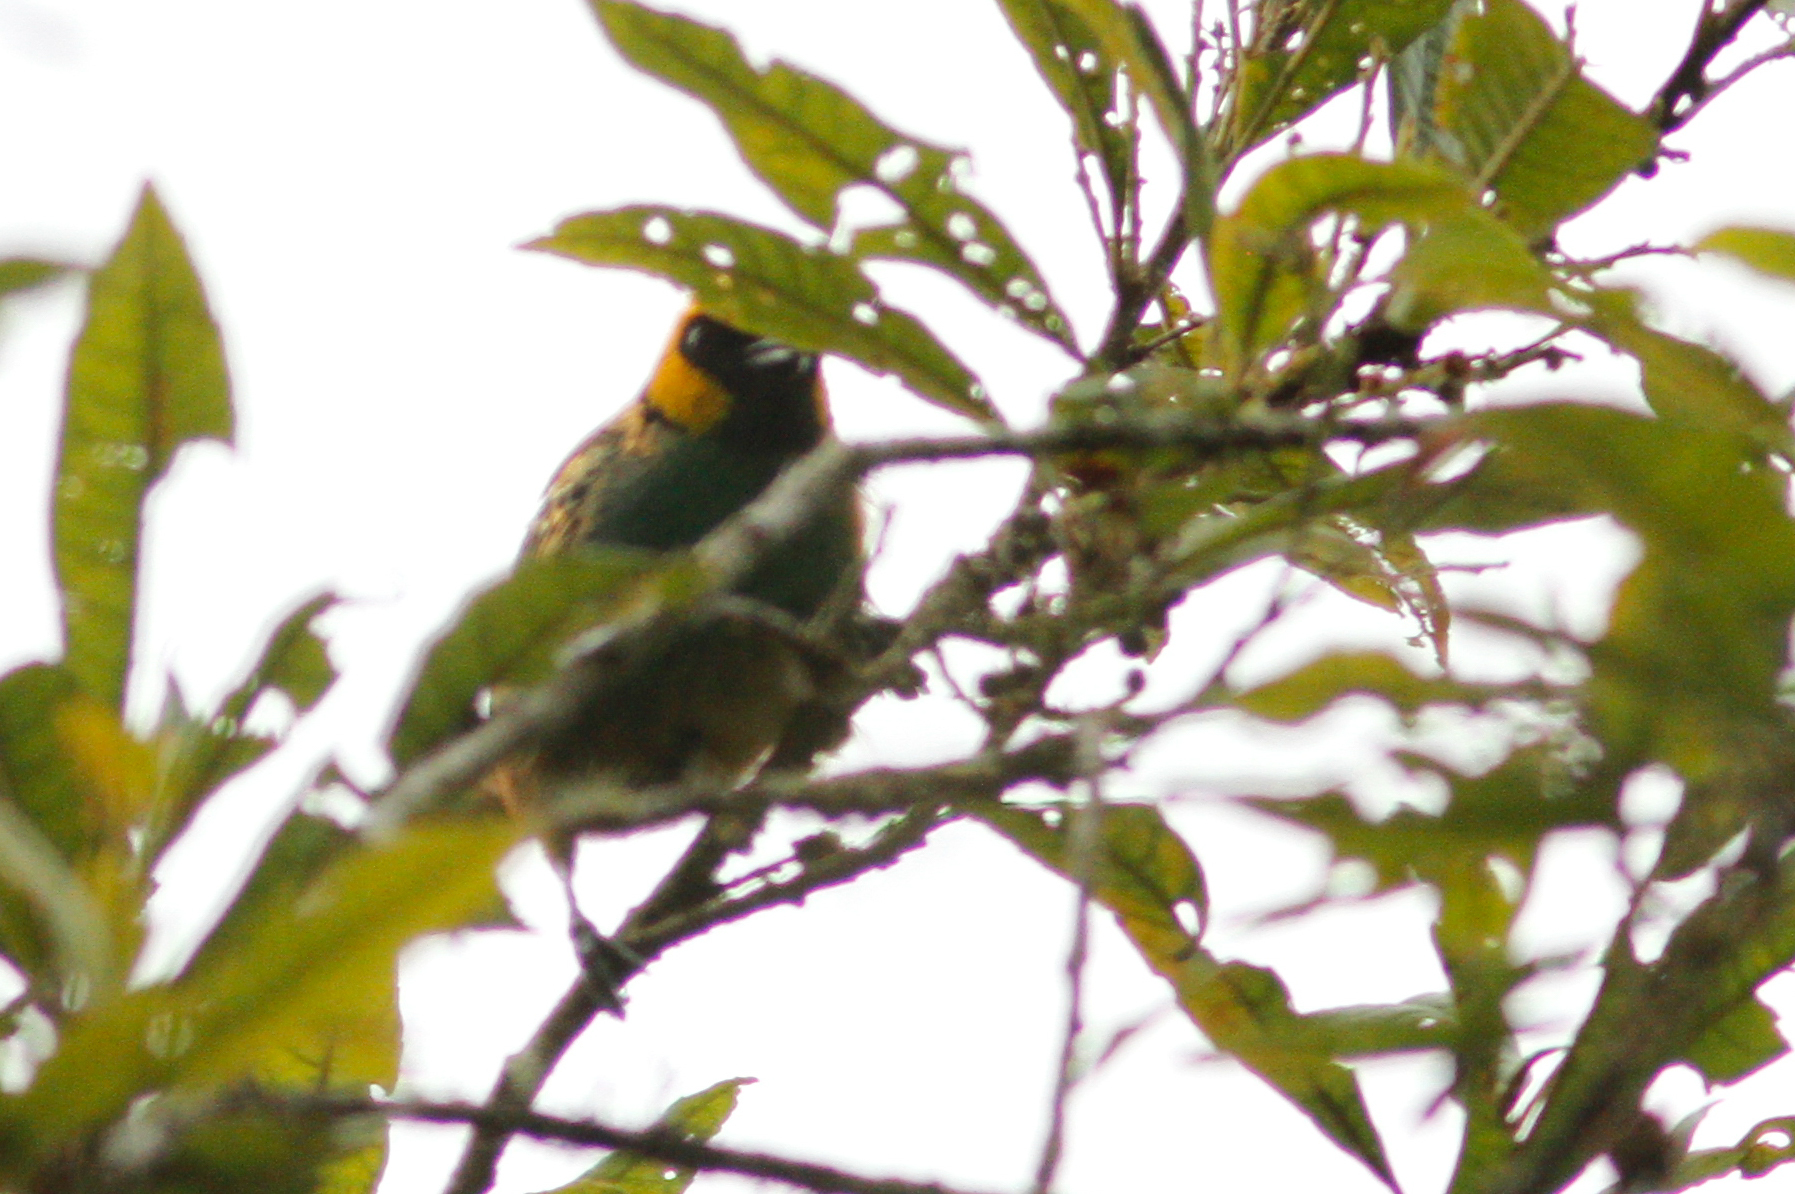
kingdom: Animalia
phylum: Chordata
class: Aves
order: Passeriformes
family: Thraupidae
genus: Tangara
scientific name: Tangara xanthocephala
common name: Saffron-crowned tanager
